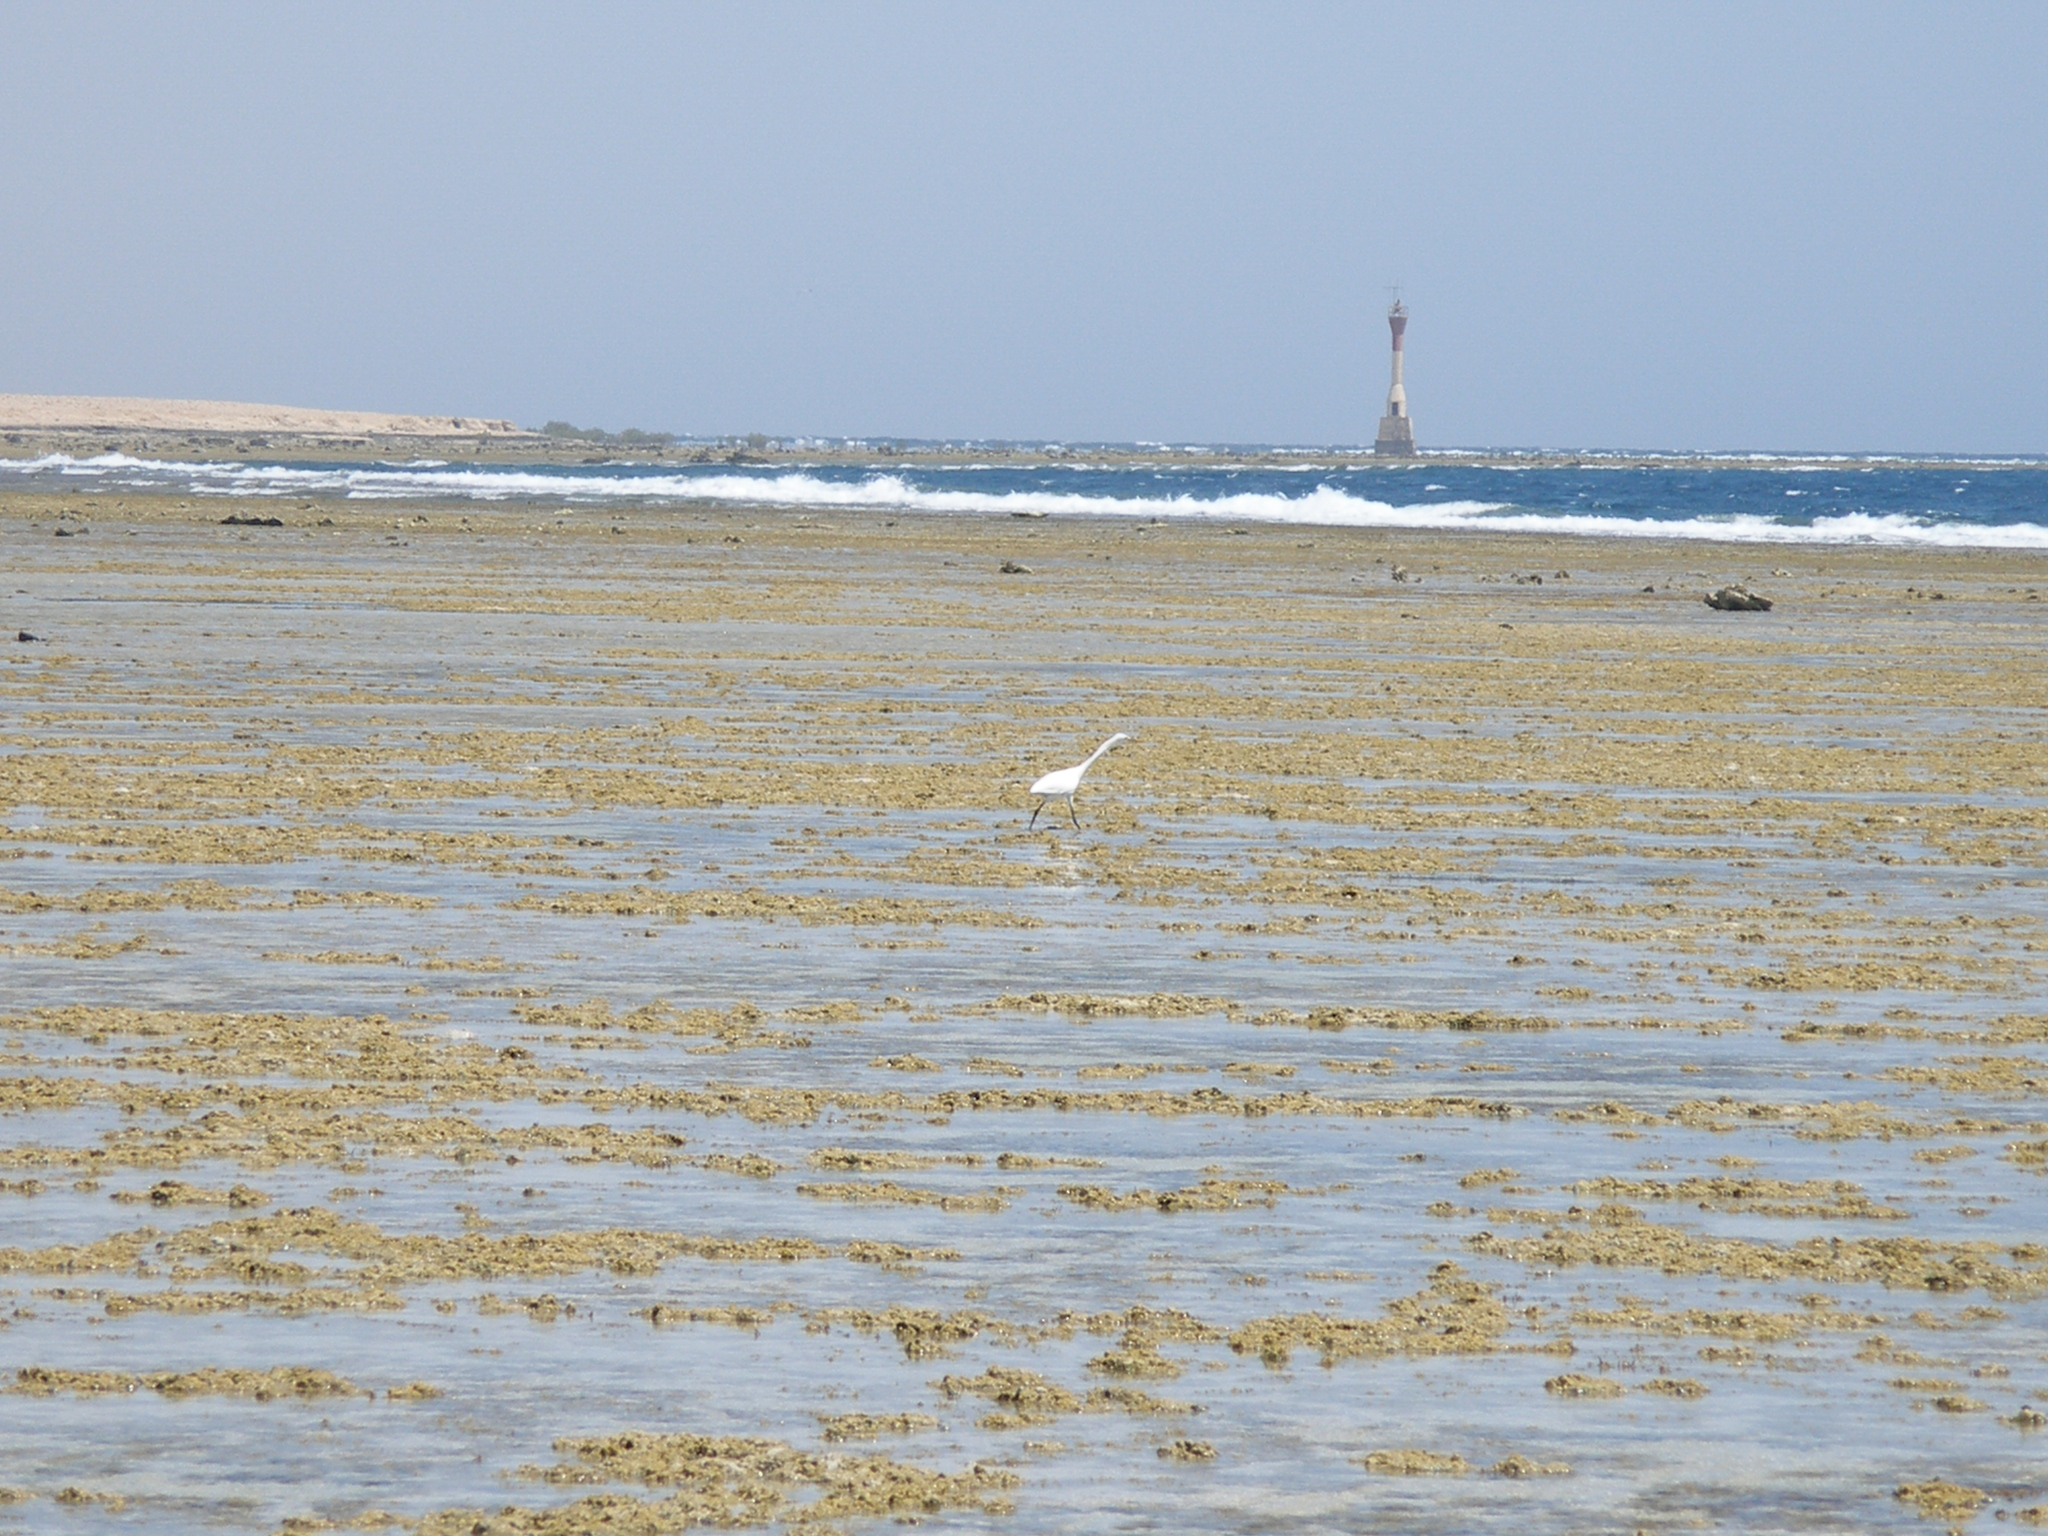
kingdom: Animalia
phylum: Chordata
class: Aves
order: Pelecaniformes
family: Ardeidae
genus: Egretta
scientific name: Egretta gularis
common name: Western reef-heron
